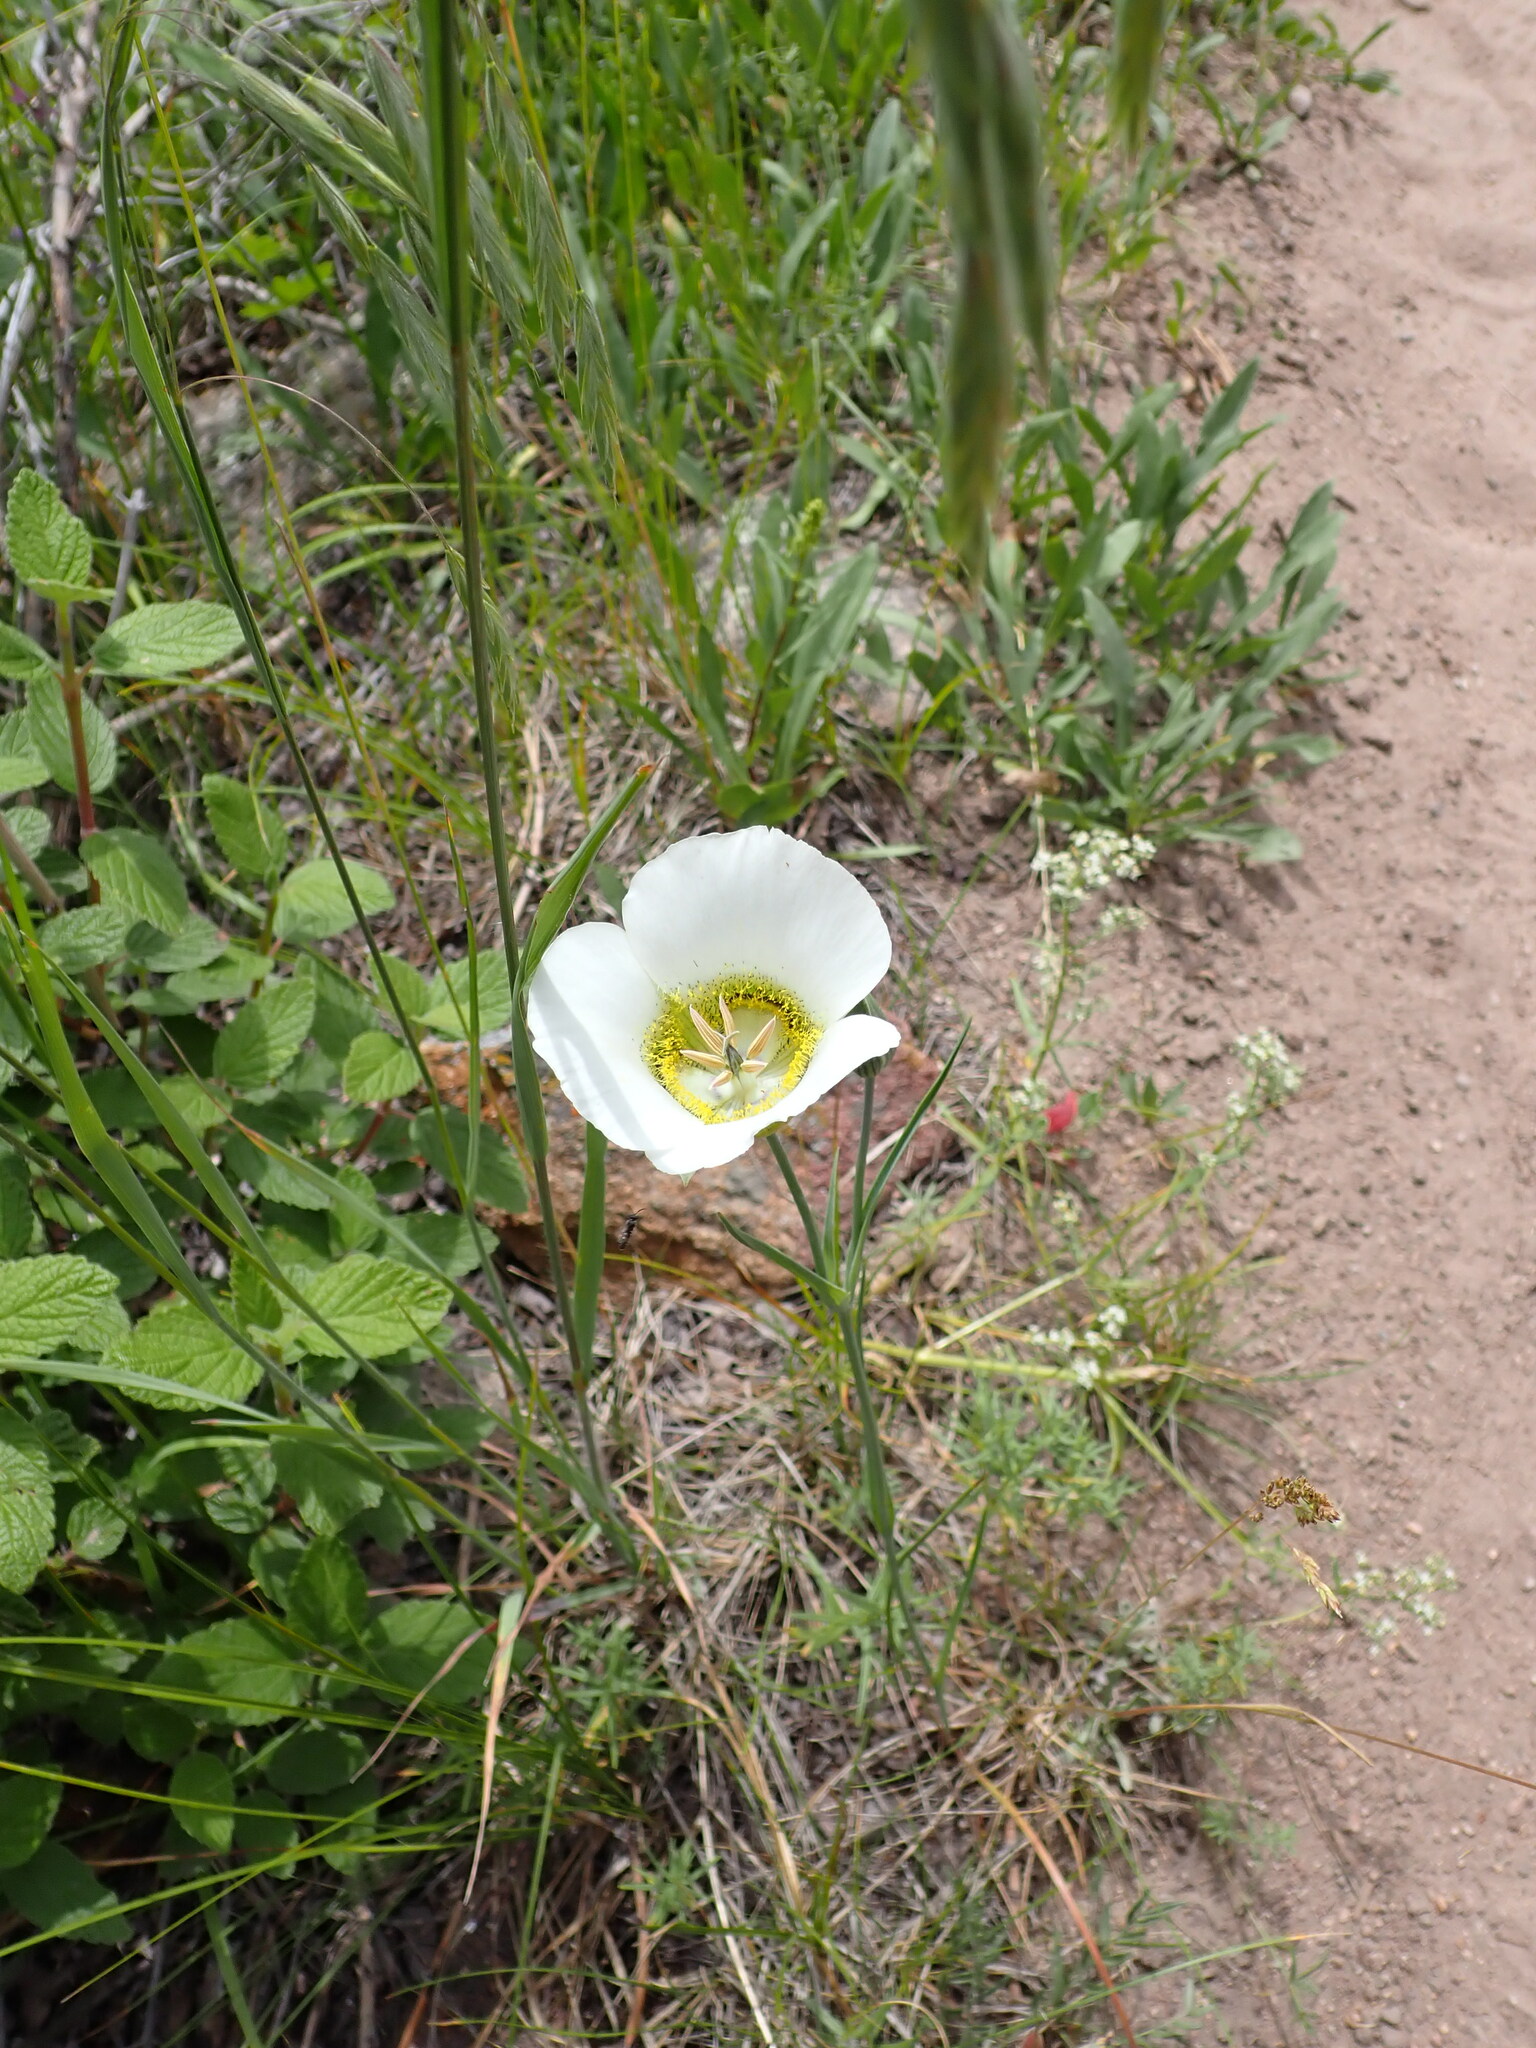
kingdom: Plantae
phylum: Tracheophyta
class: Liliopsida
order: Liliales
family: Liliaceae
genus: Calochortus
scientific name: Calochortus gunnisonii
